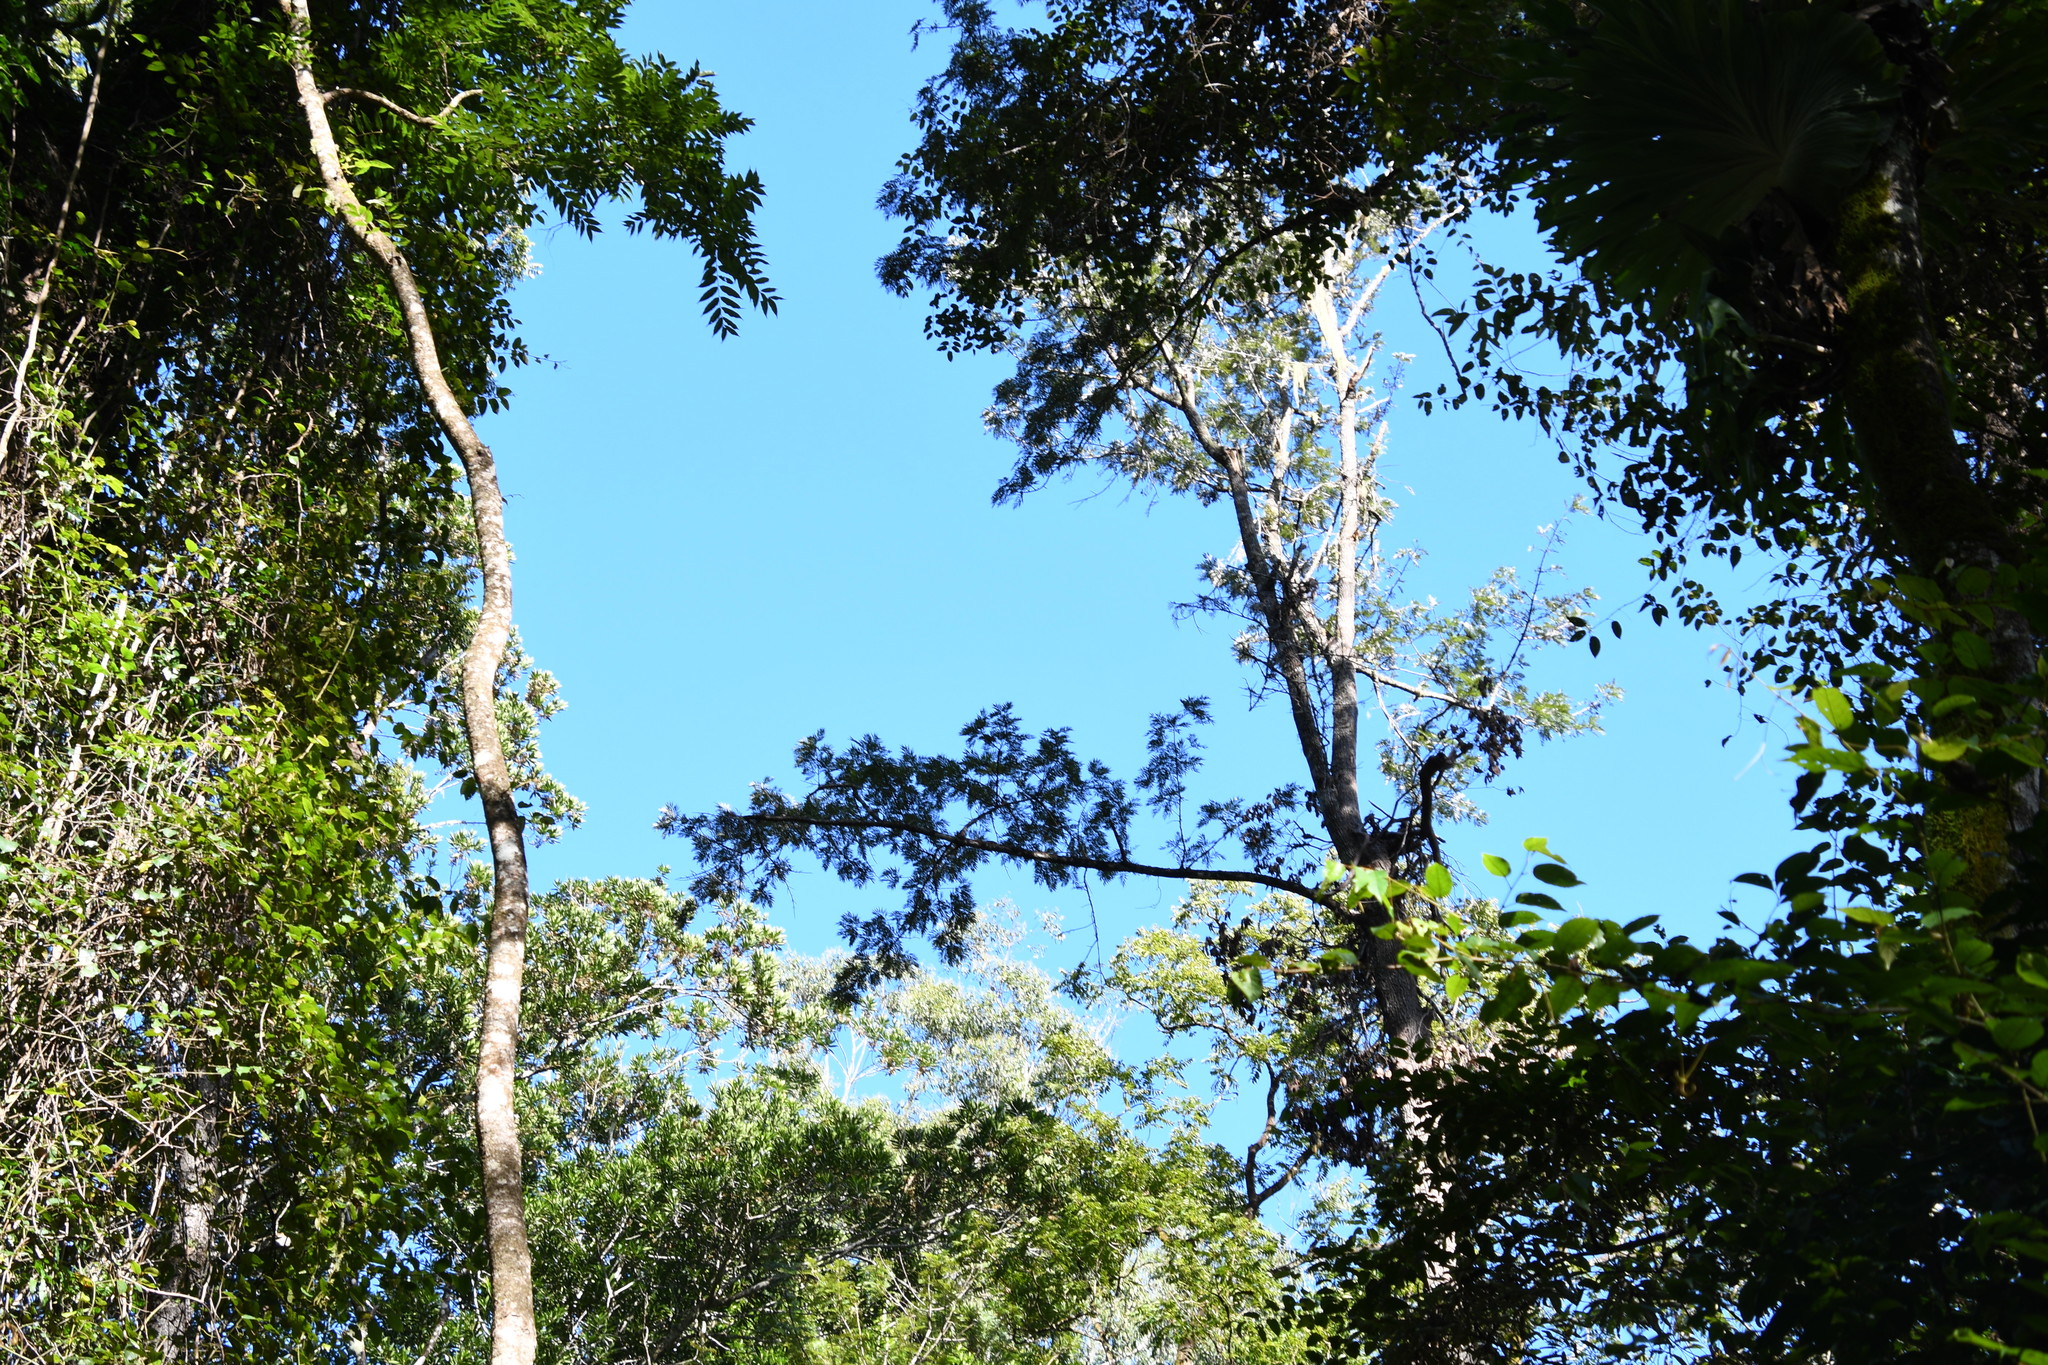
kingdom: Plantae
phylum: Tracheophyta
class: Magnoliopsida
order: Proteales
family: Proteaceae
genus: Grevillea
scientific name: Grevillea robusta
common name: Silkoak
